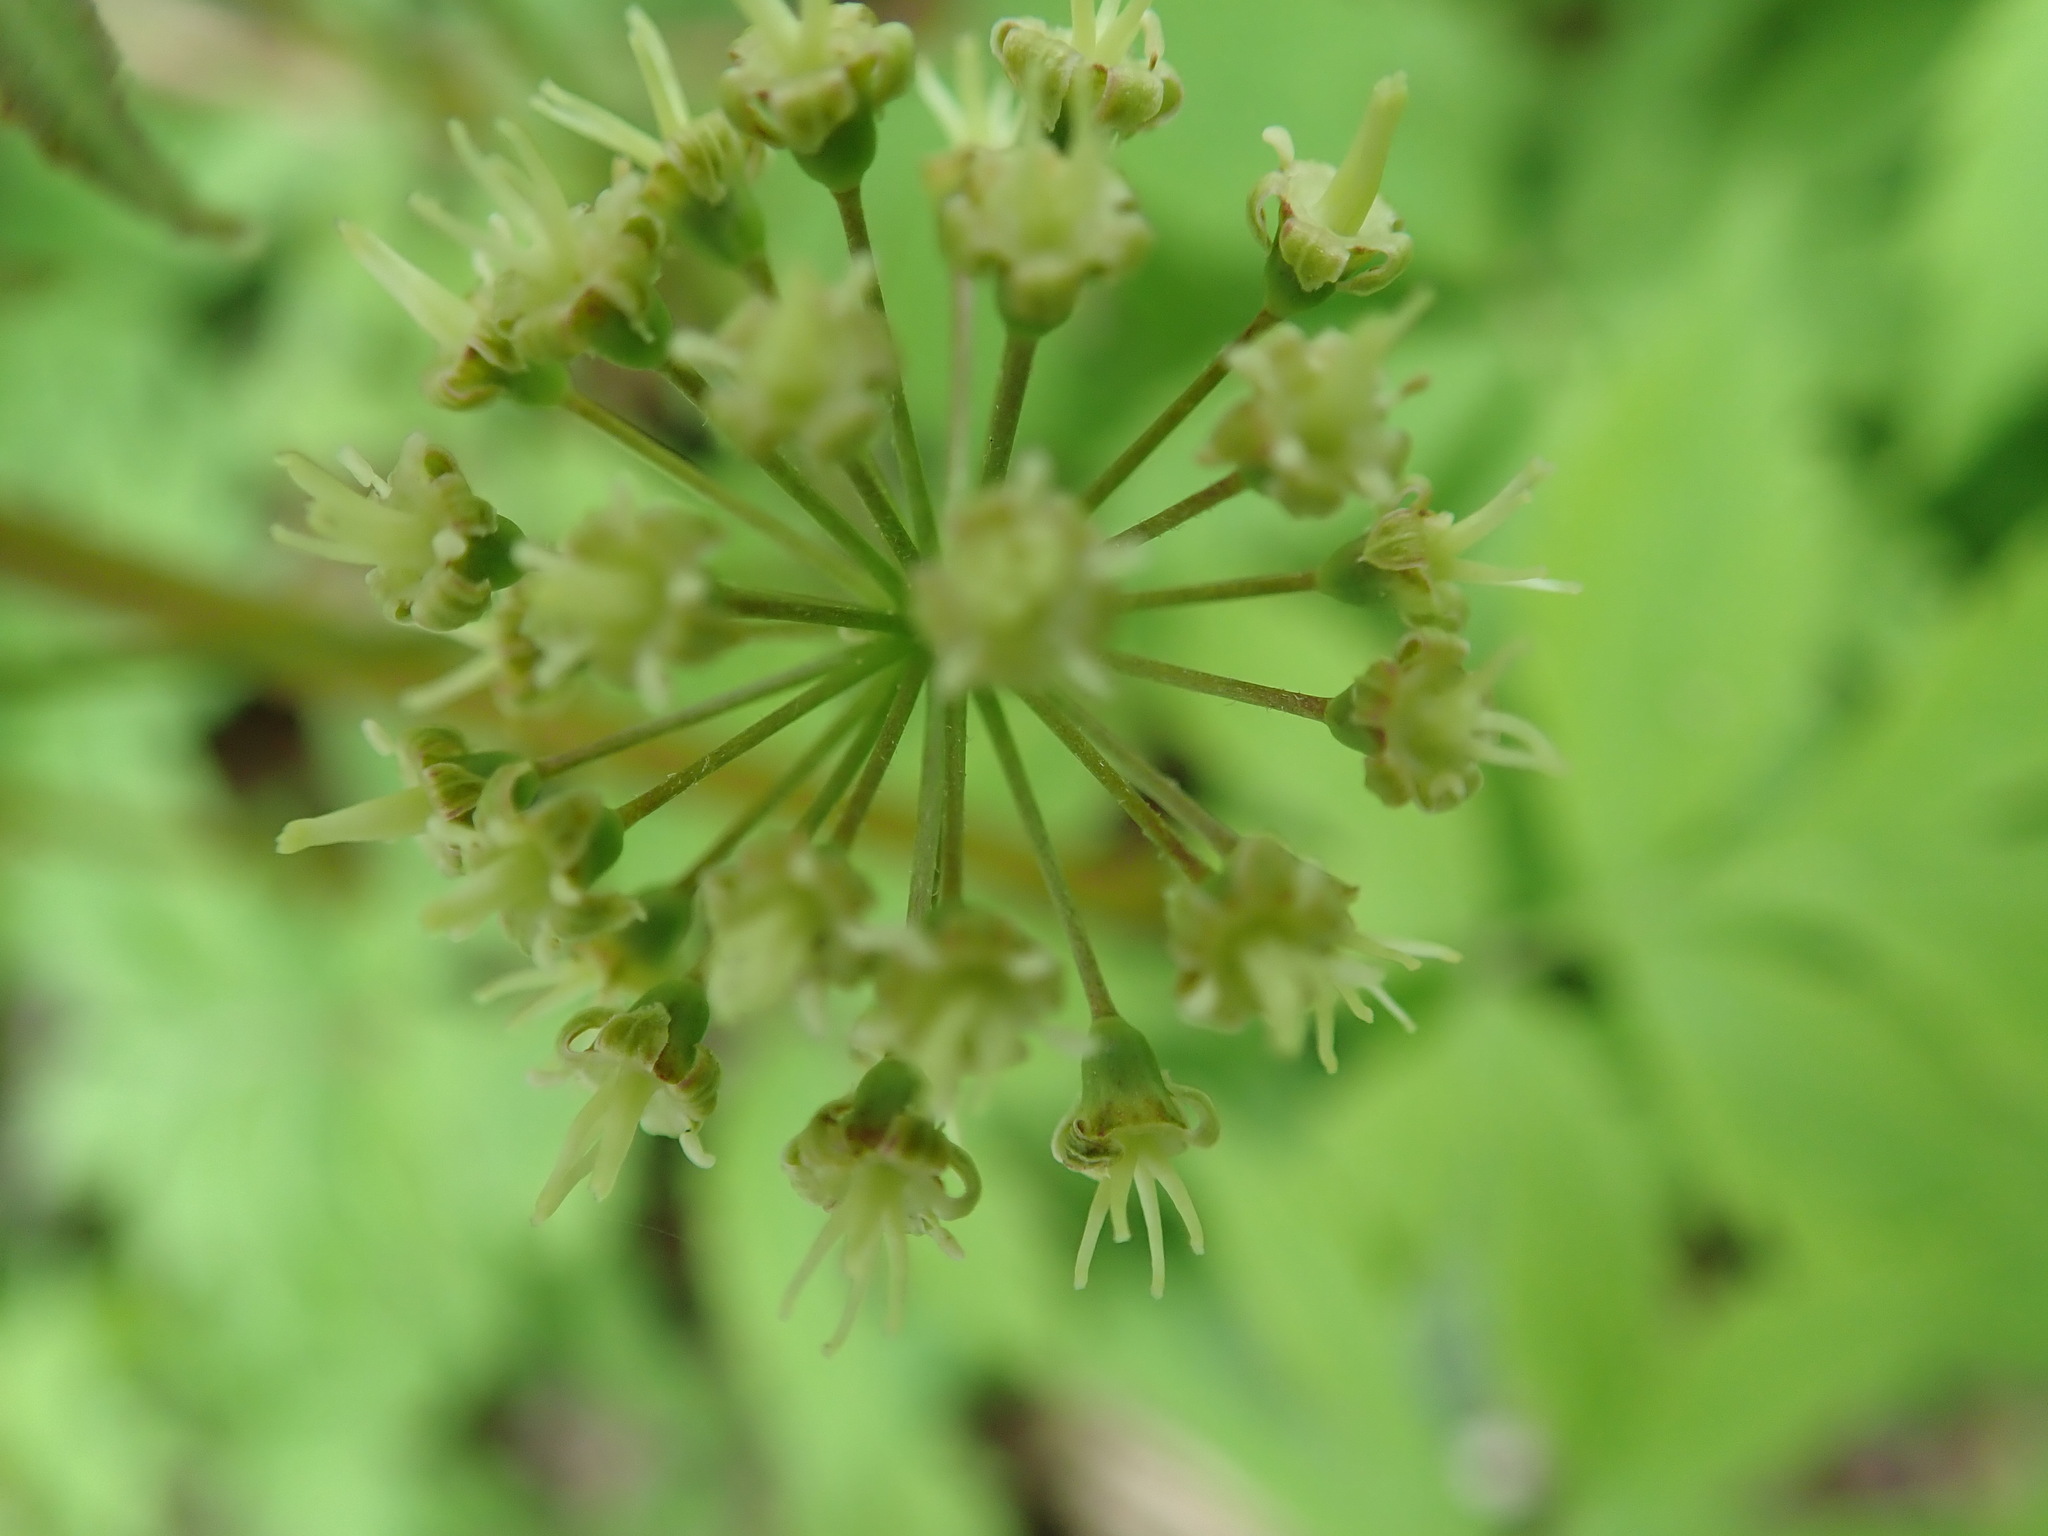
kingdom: Plantae
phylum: Tracheophyta
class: Magnoliopsida
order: Apiales
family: Araliaceae
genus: Aralia
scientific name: Aralia nudicaulis
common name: Wild sarsaparilla
